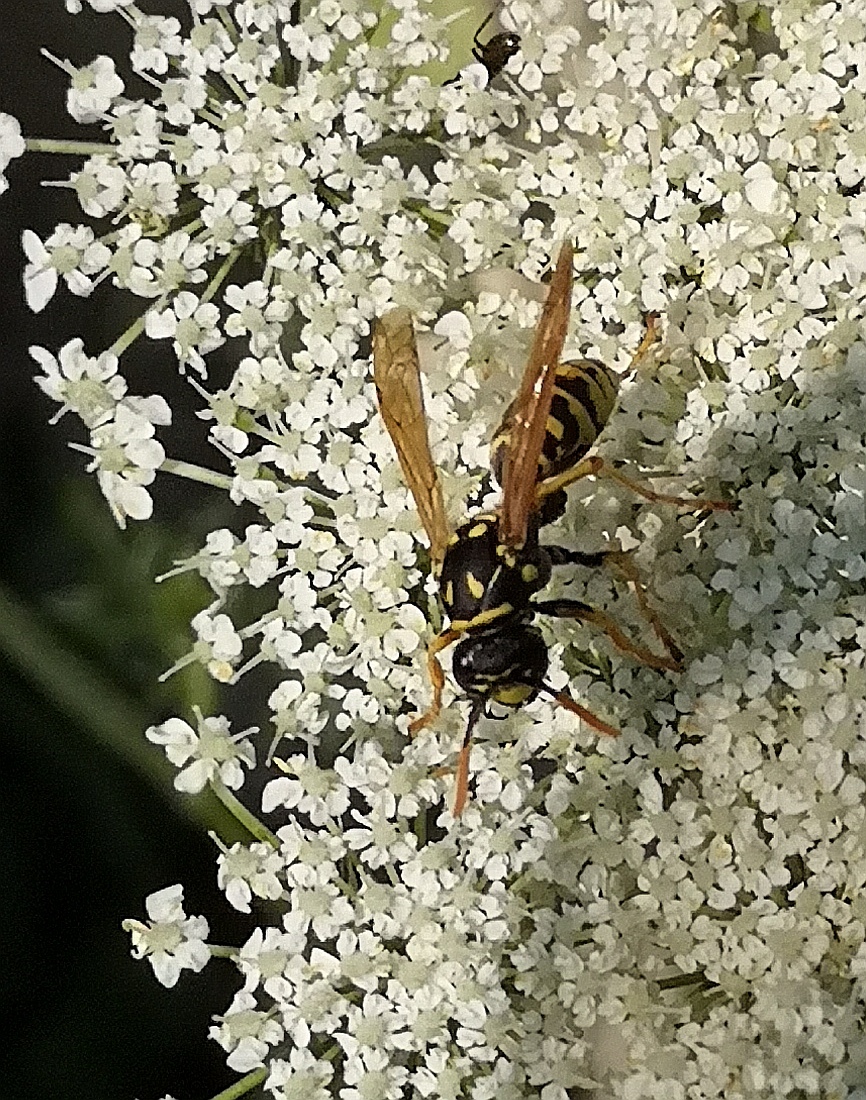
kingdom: Animalia
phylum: Arthropoda
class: Insecta
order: Hymenoptera
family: Eumenidae
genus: Polistes
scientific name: Polistes dominula
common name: Paper wasp
